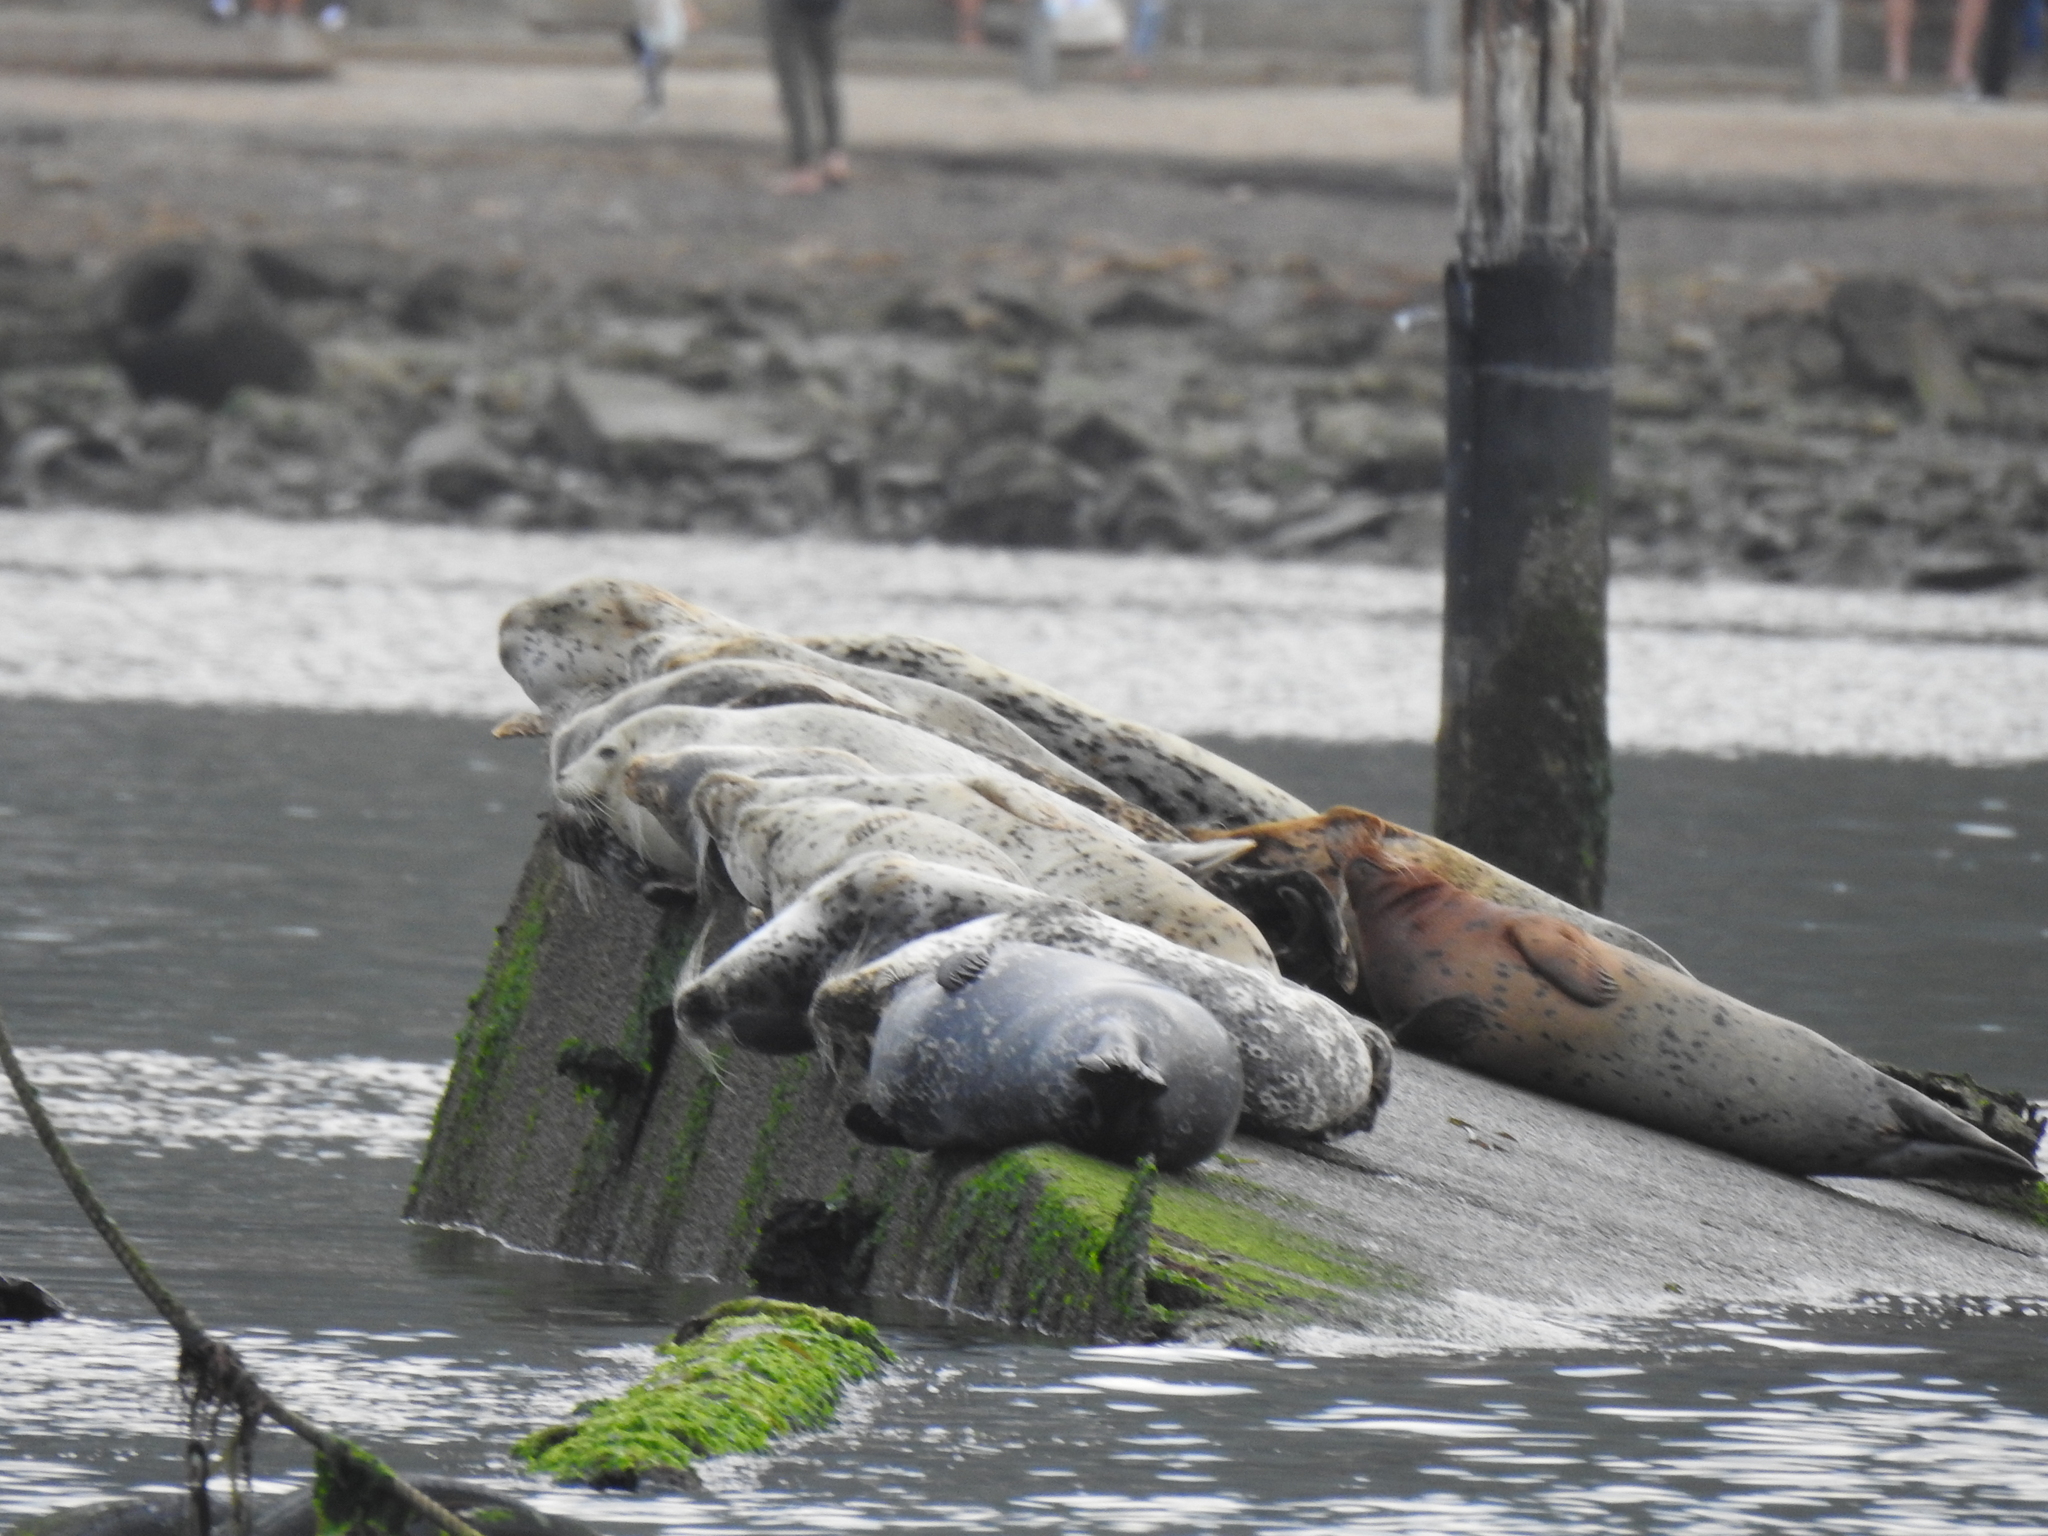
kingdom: Animalia
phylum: Chordata
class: Mammalia
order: Carnivora
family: Phocidae
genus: Phoca
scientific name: Phoca vitulina
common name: Harbor seal
